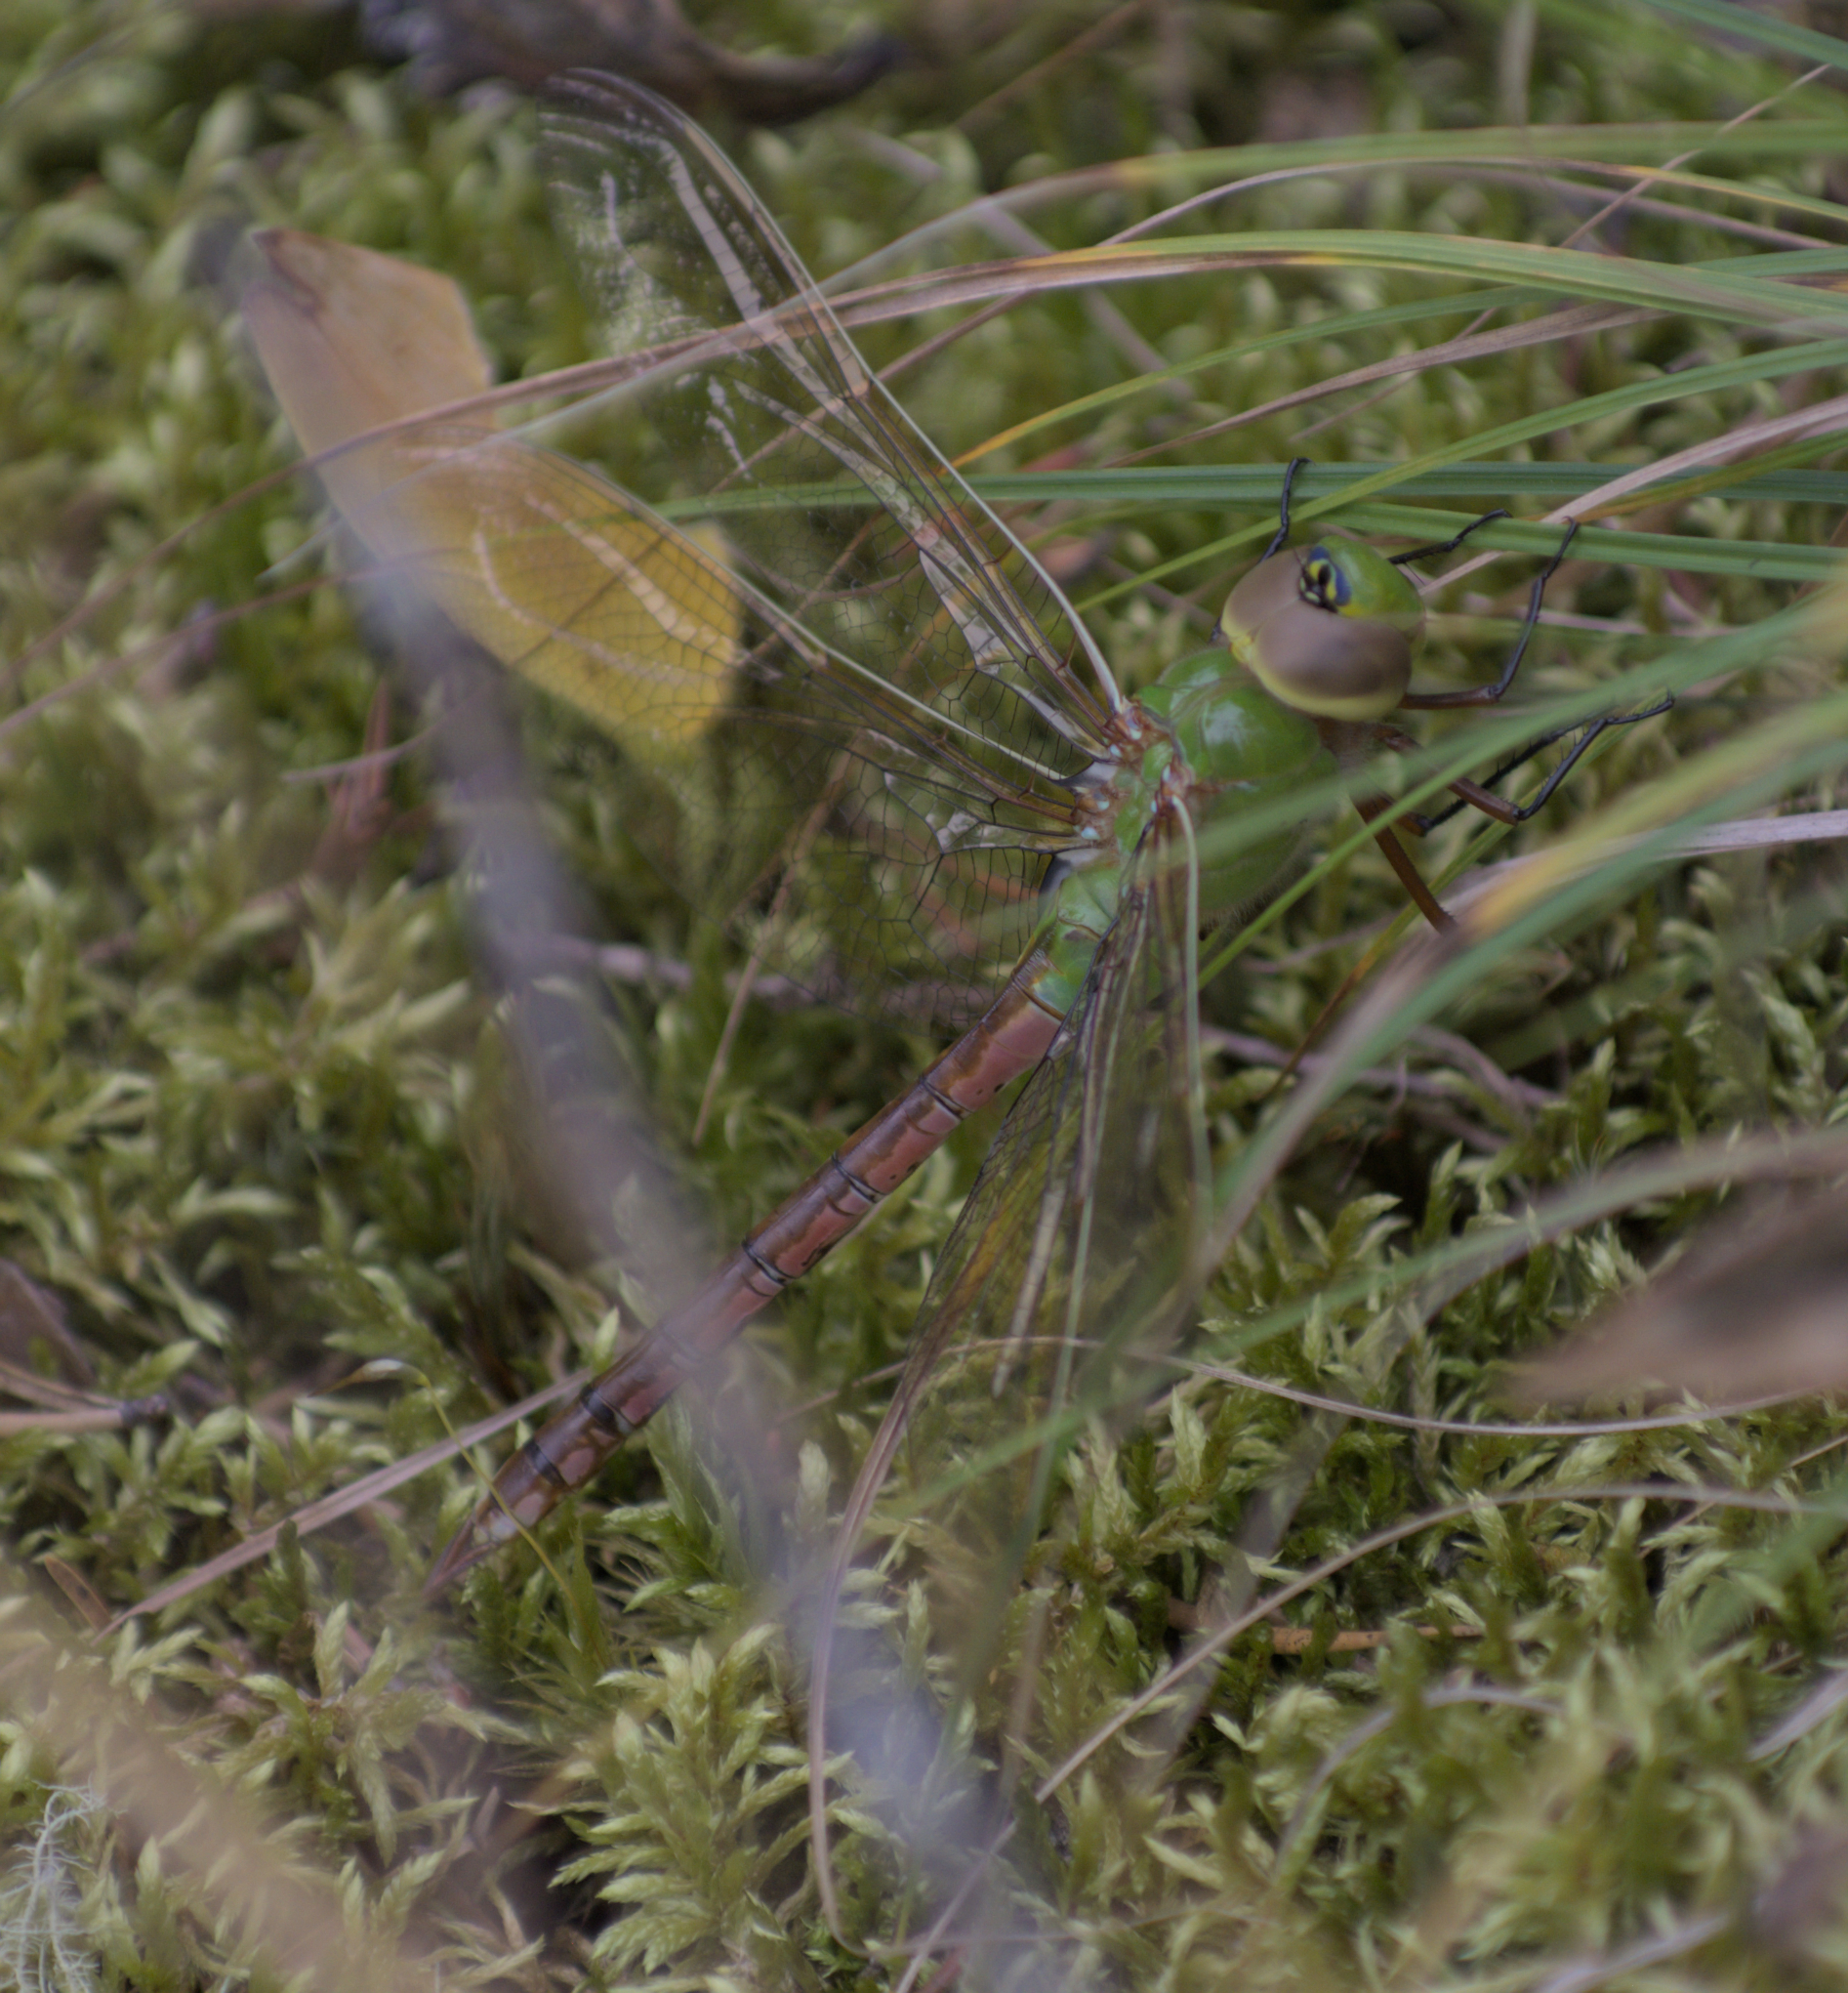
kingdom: Animalia
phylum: Arthropoda
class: Insecta
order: Odonata
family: Aeshnidae
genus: Anax
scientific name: Anax junius
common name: Common green darner
